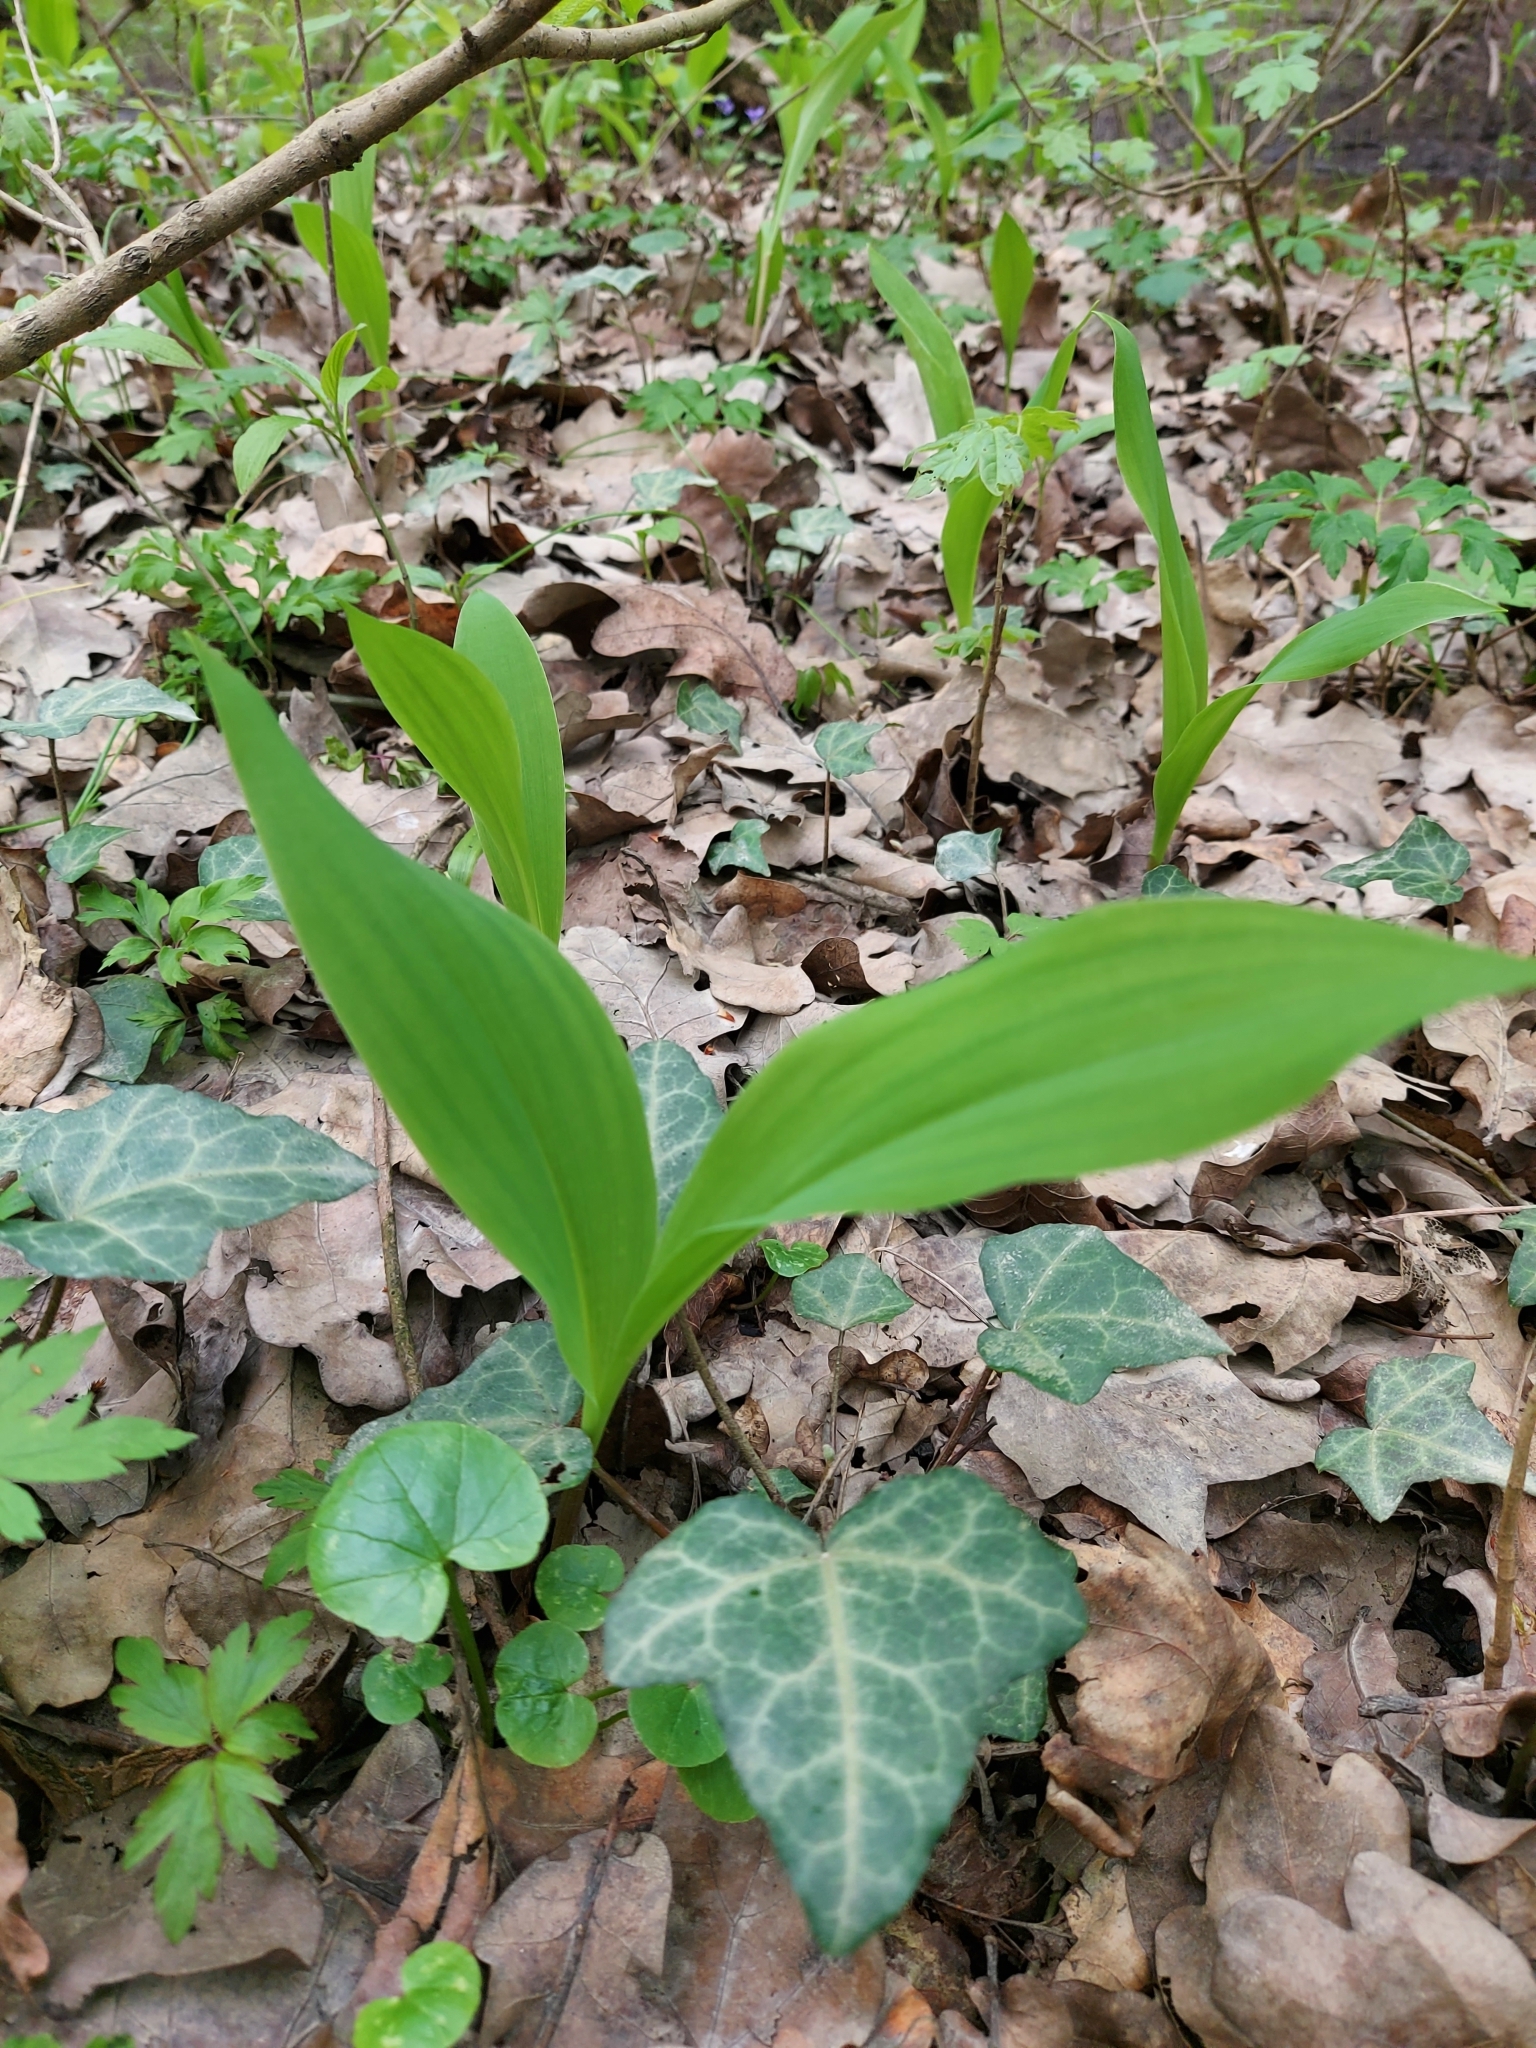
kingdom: Plantae
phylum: Tracheophyta
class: Liliopsida
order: Asparagales
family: Asparagaceae
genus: Convallaria
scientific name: Convallaria majalis
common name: Lily-of-the-valley
